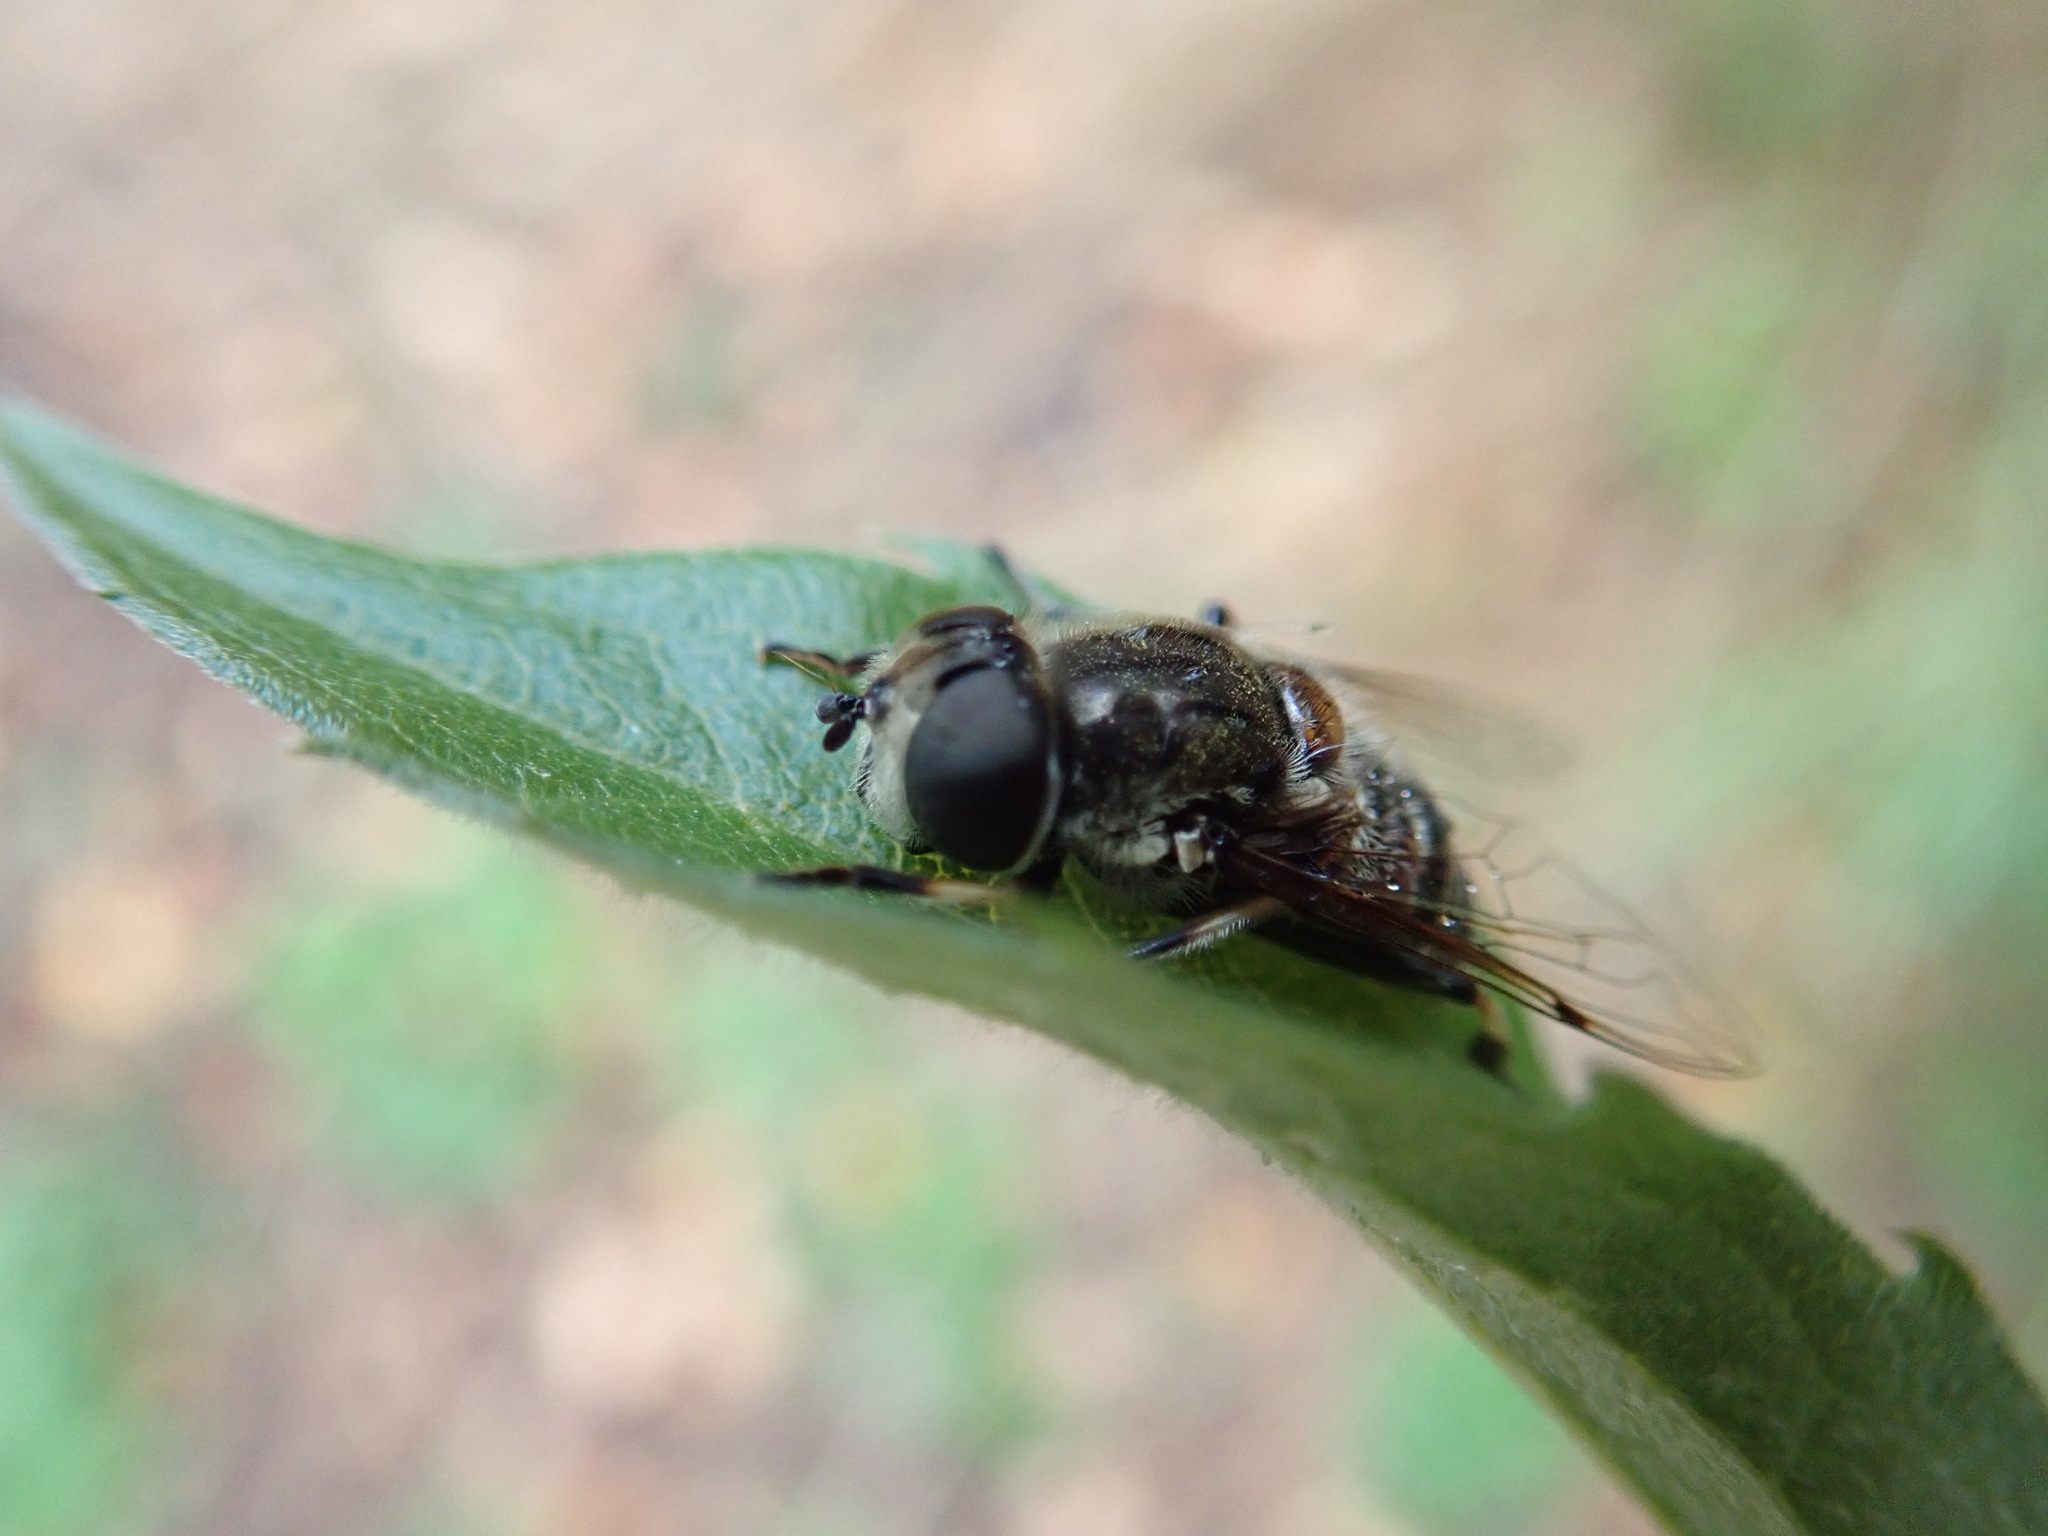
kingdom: Animalia
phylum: Arthropoda
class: Insecta
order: Diptera
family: Syrphidae
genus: Eristalis
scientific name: Eristalis dimidiata
